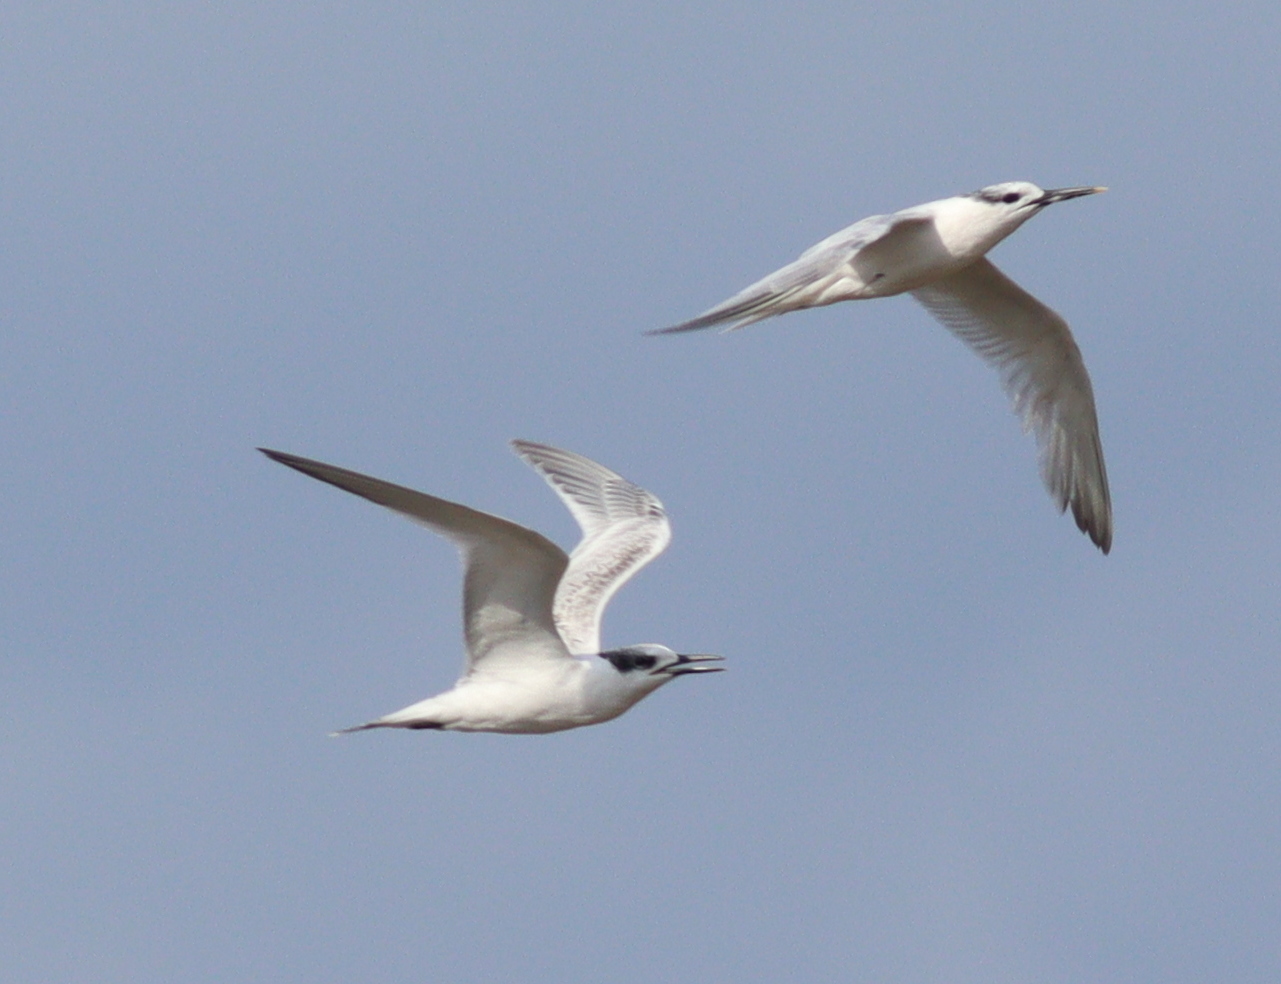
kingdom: Animalia
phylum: Chordata
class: Aves
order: Charadriiformes
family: Laridae
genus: Thalasseus
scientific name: Thalasseus sandvicensis
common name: Sandwich tern
